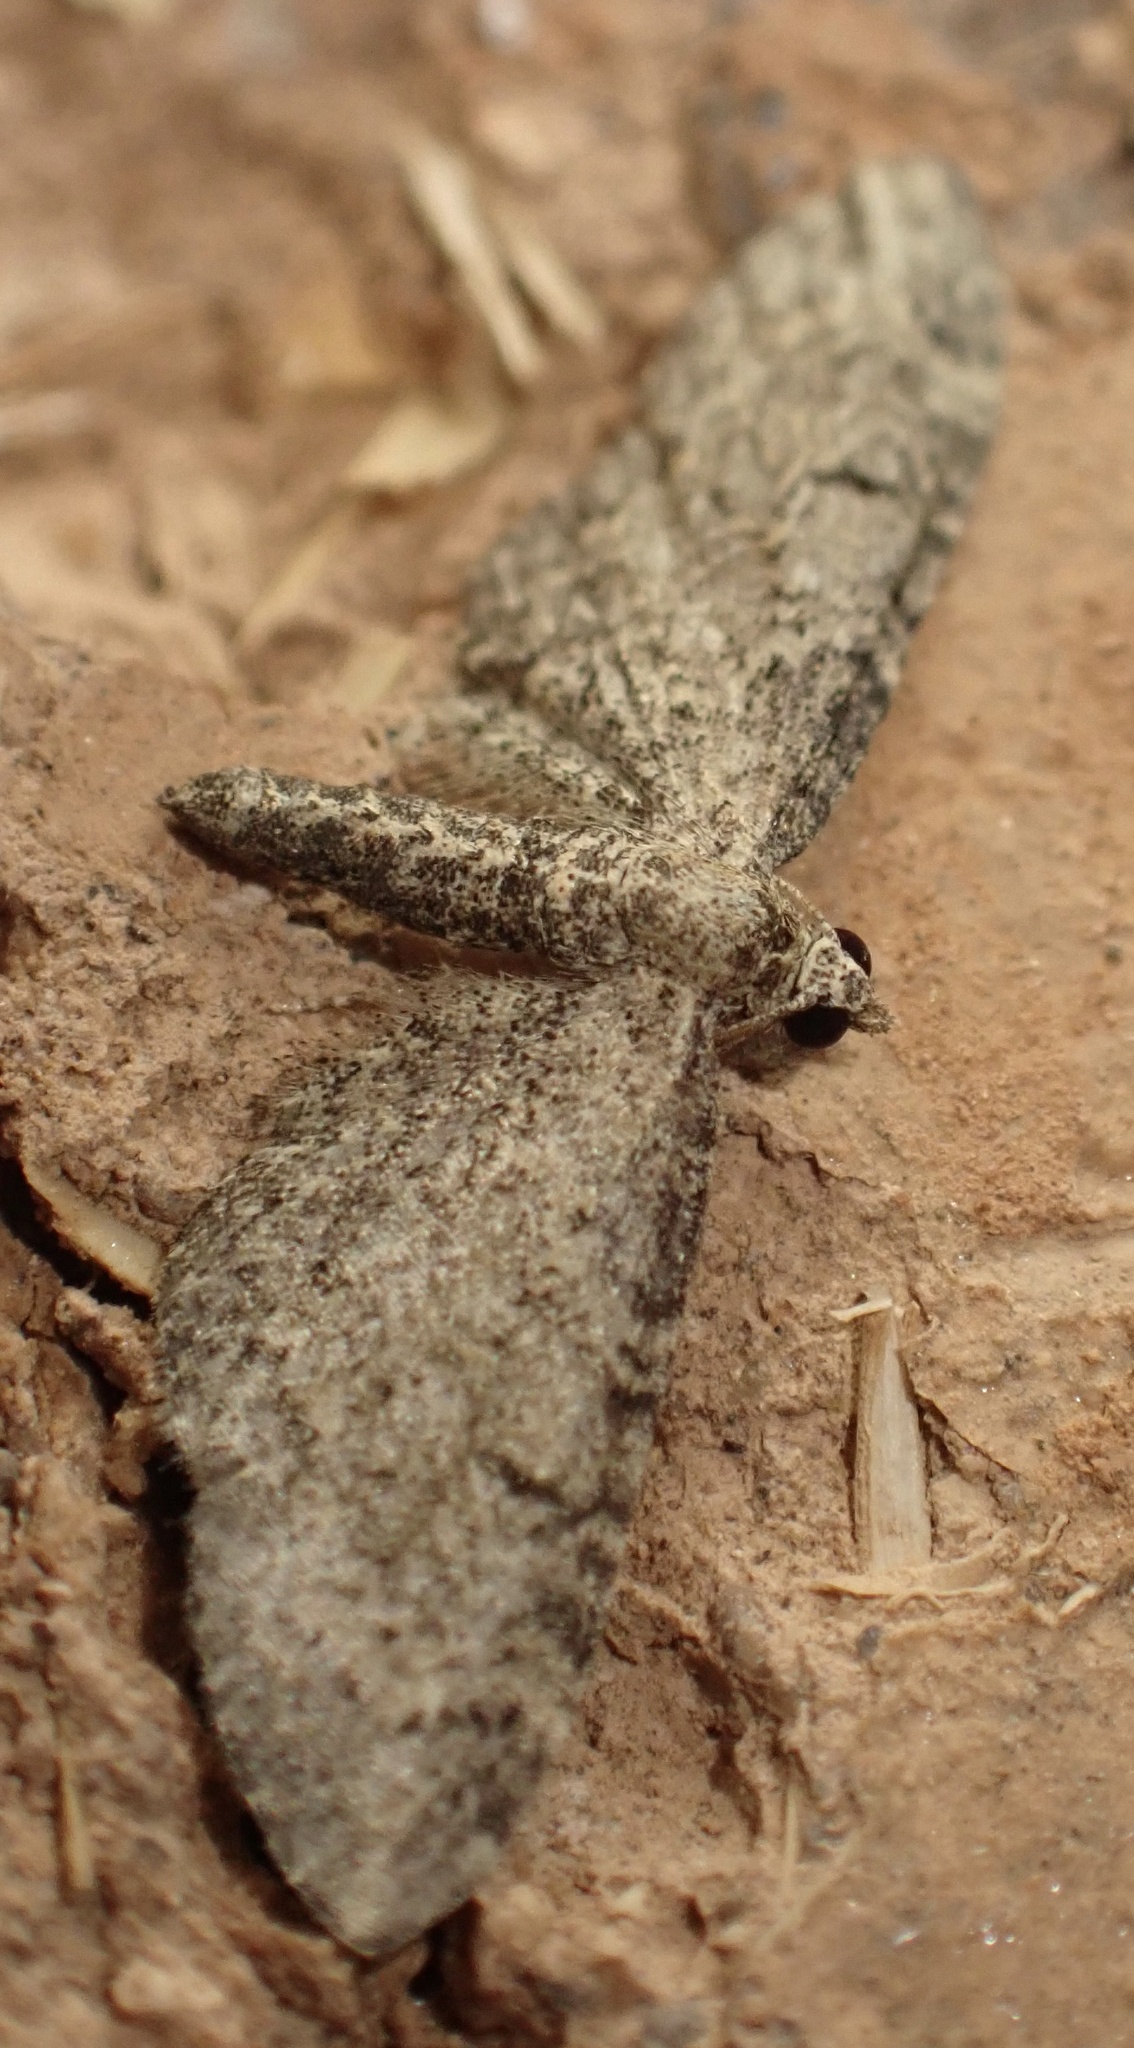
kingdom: Animalia
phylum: Arthropoda
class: Insecta
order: Lepidoptera
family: Geometridae
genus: Eupithecia
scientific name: Eupithecia ultimaria
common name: Channel islands pug
